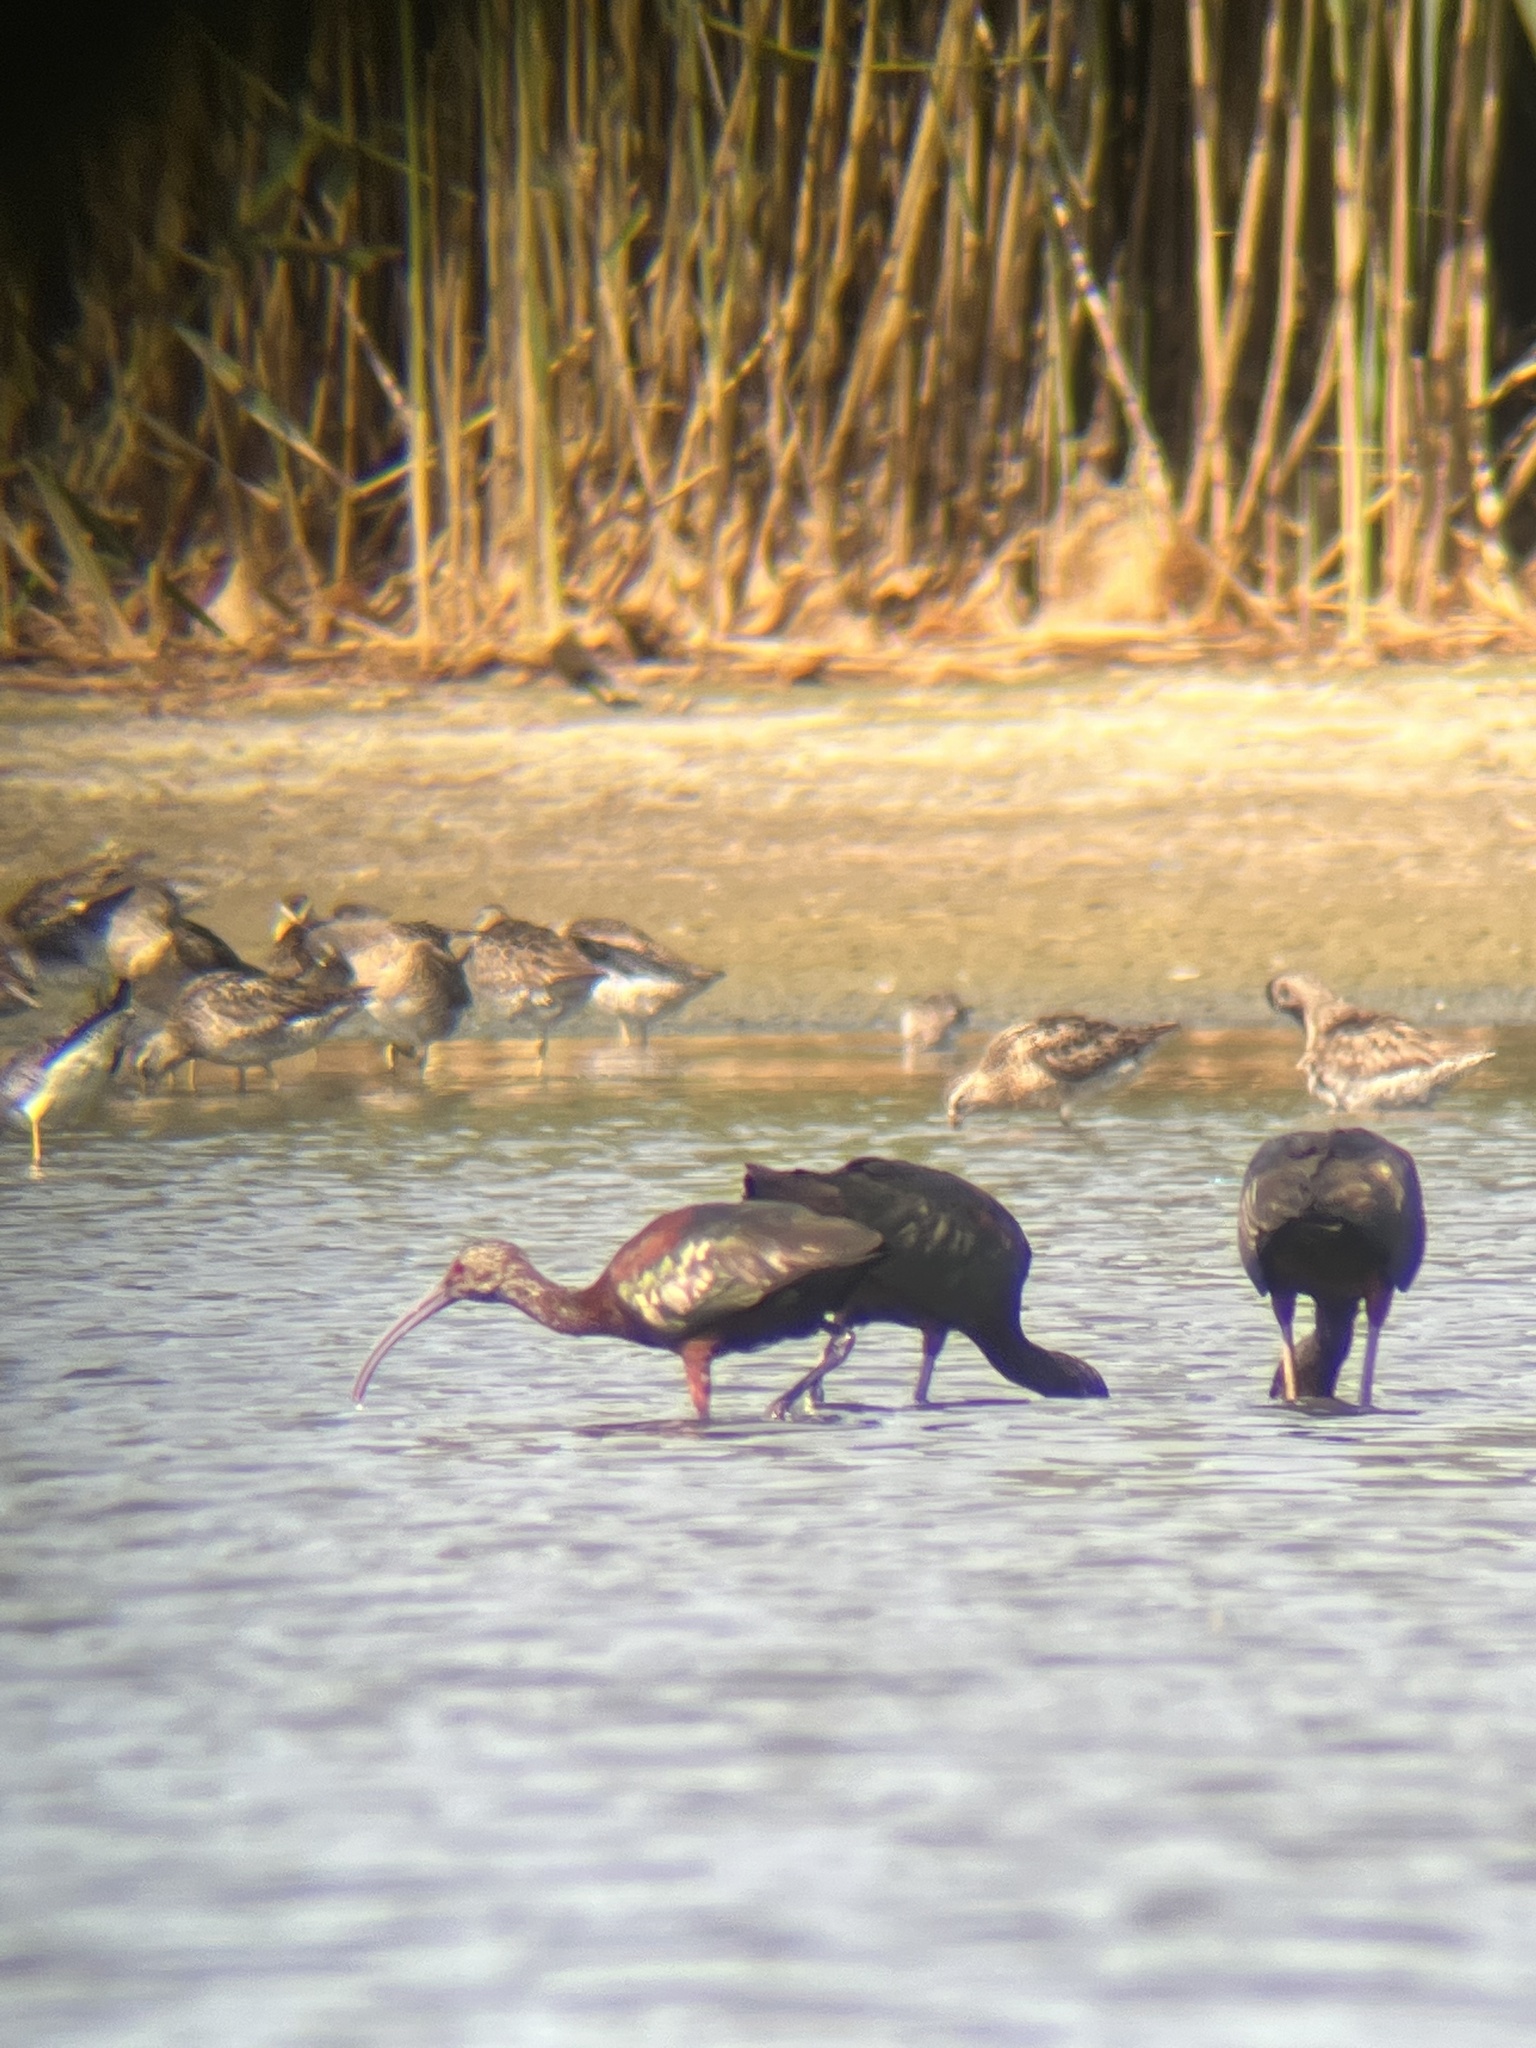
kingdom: Animalia
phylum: Chordata
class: Aves
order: Pelecaniformes
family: Threskiornithidae
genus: Plegadis
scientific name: Plegadis chihi
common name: White-faced ibis
